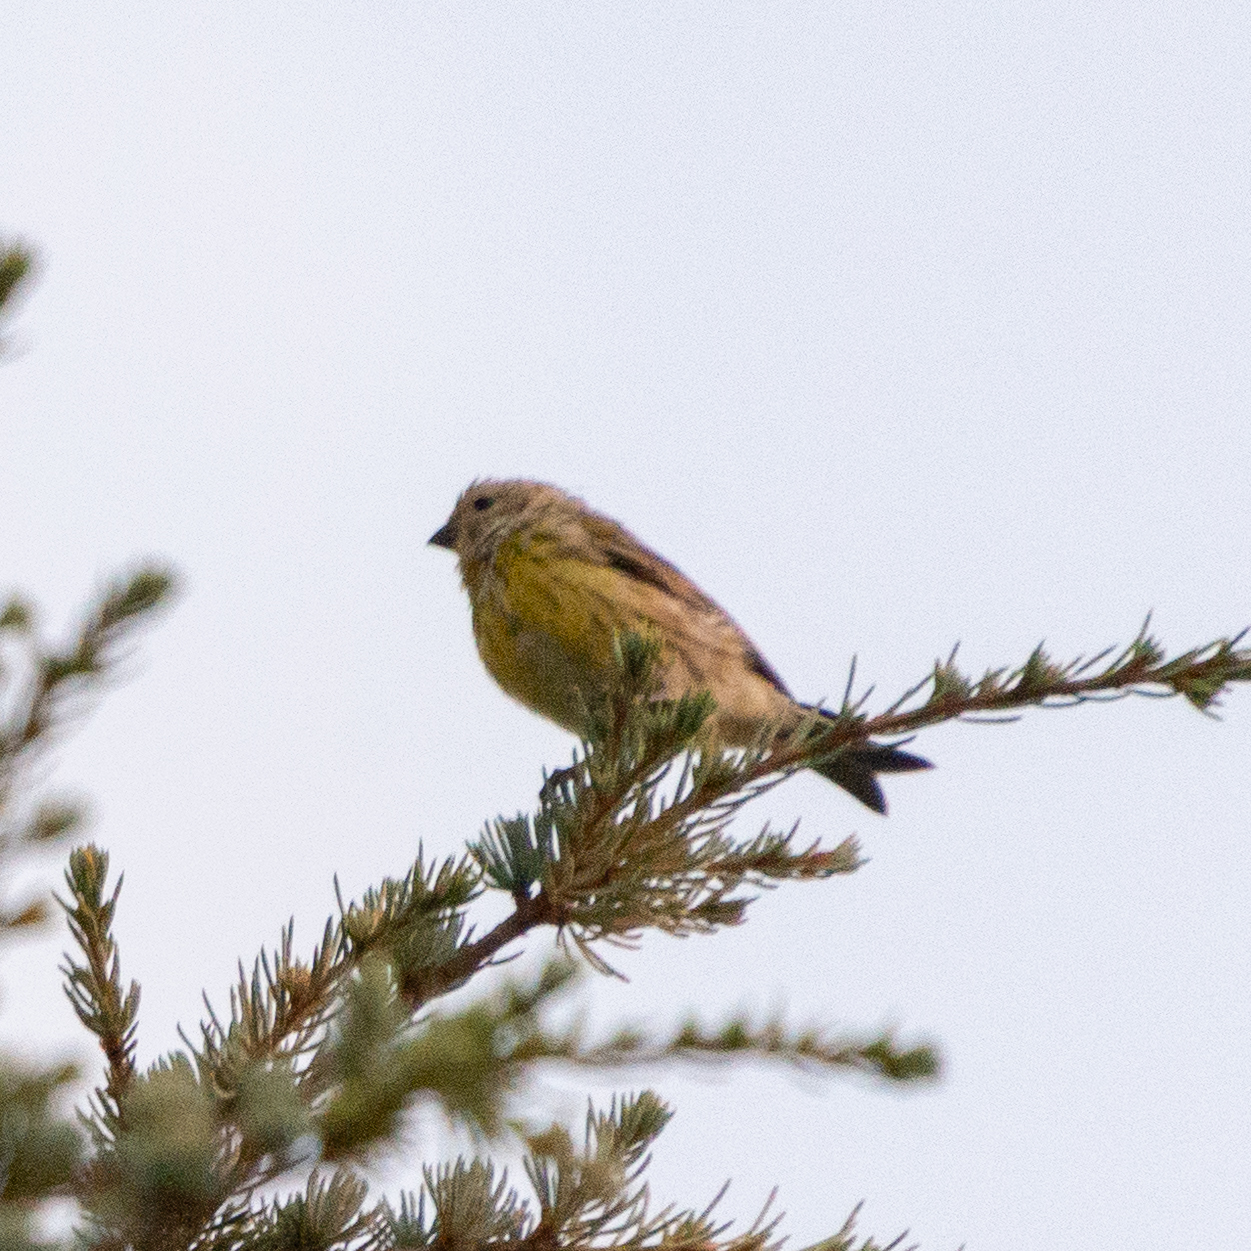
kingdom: Animalia
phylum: Chordata
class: Aves
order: Passeriformes
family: Fringillidae
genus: Serinus
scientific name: Serinus serinus
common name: European serin
